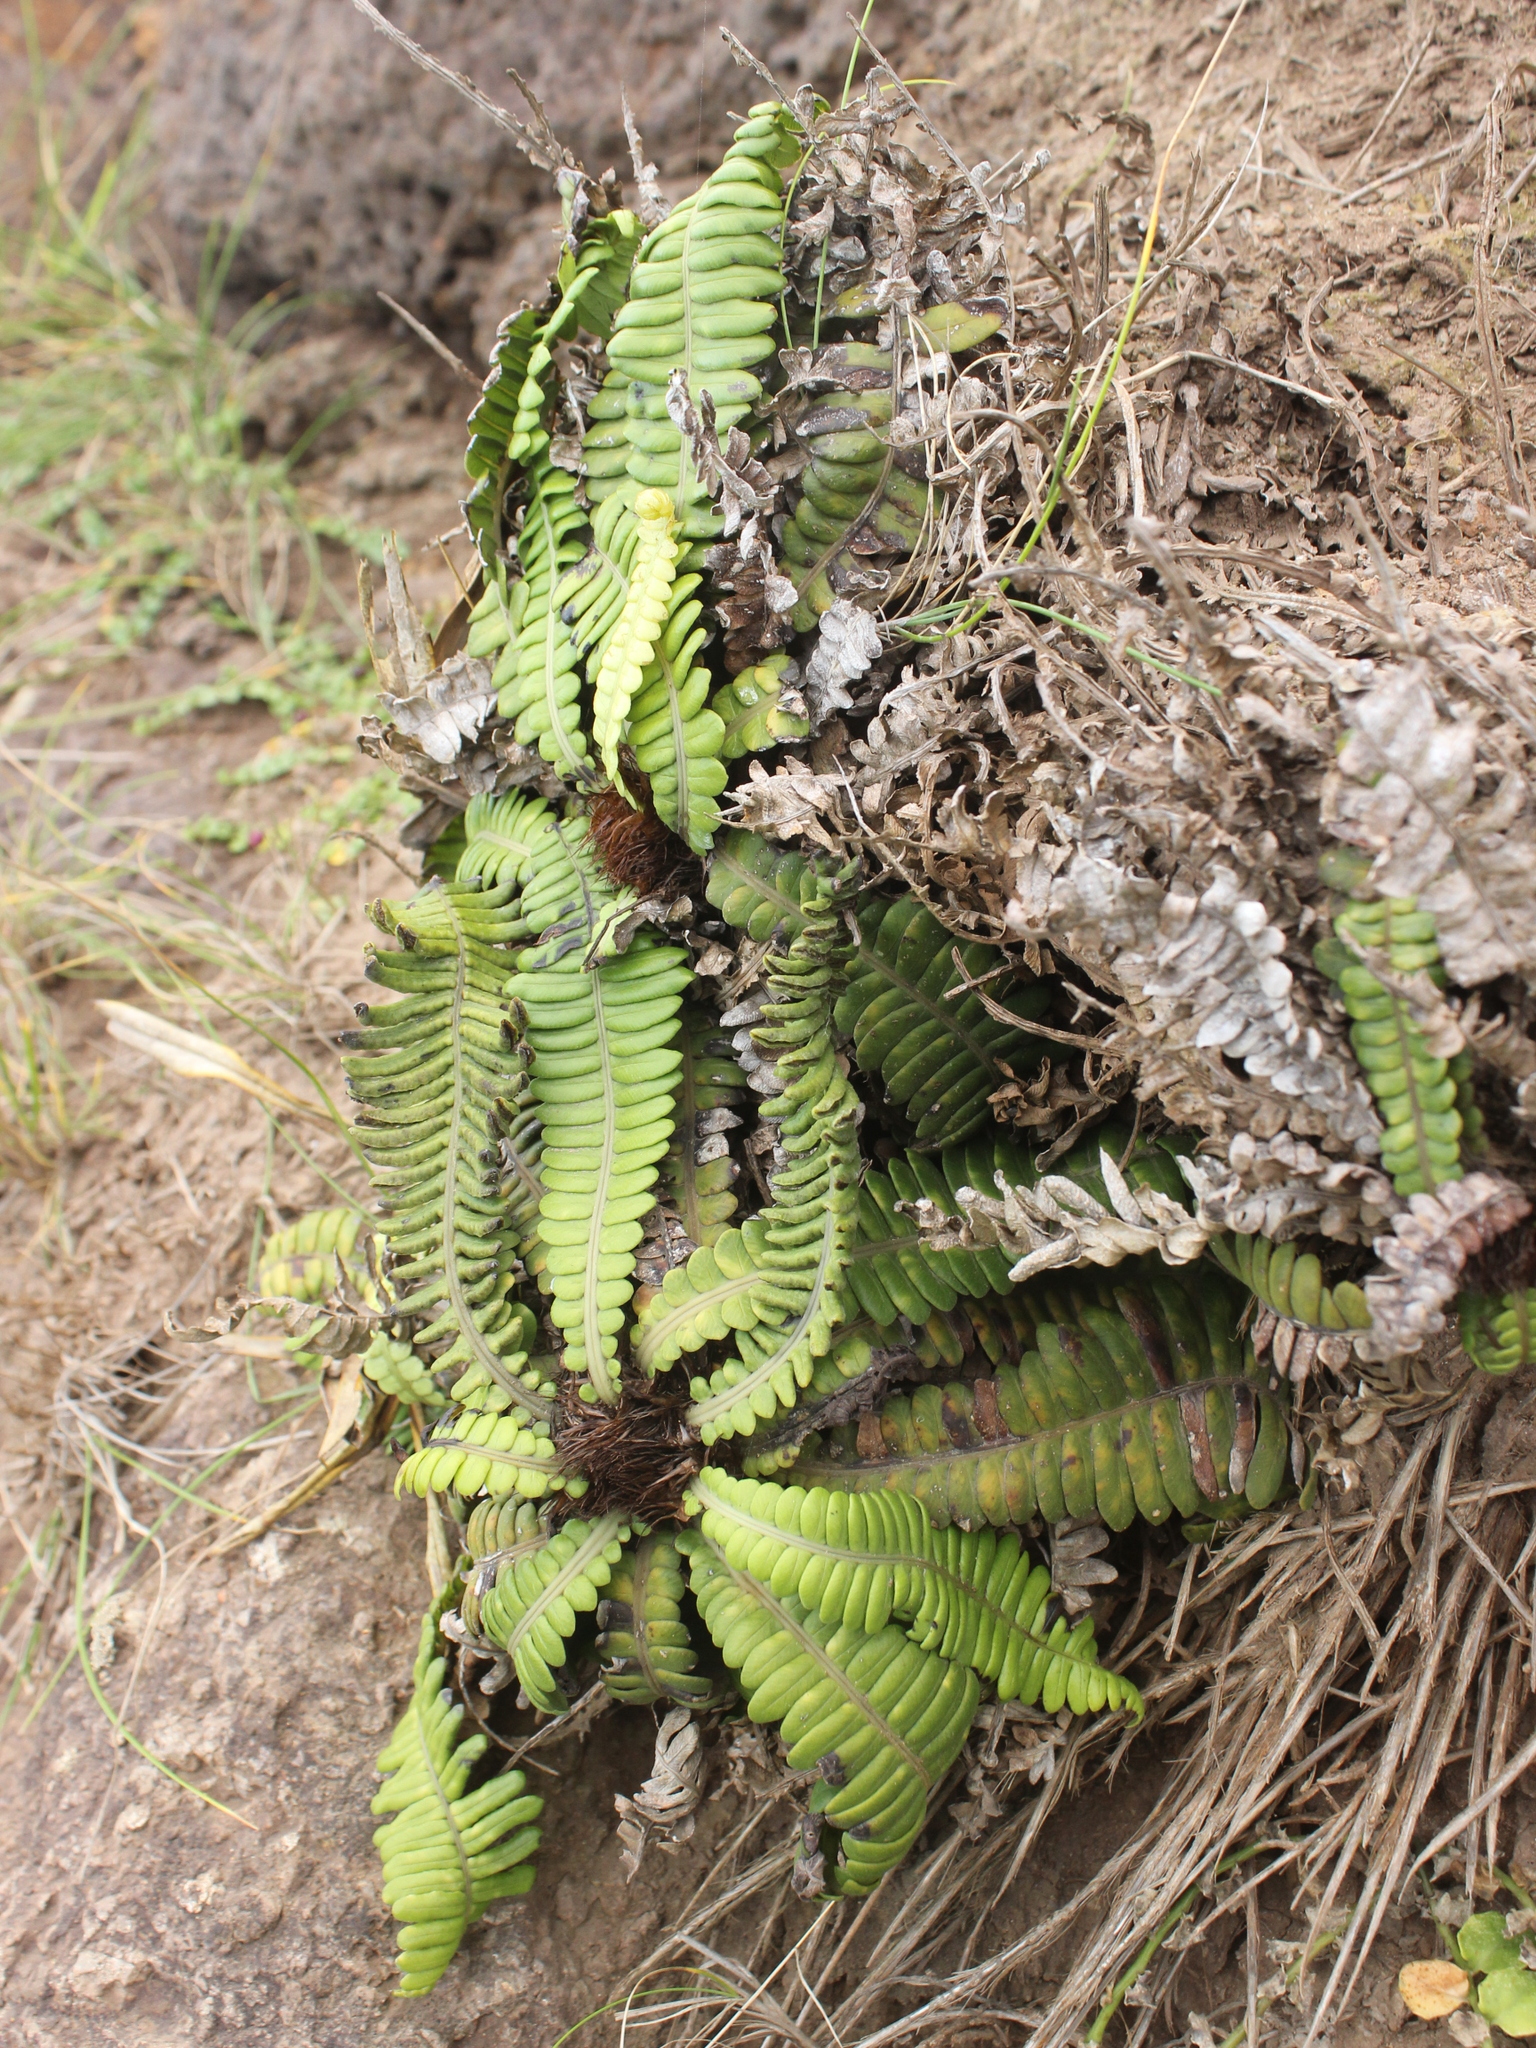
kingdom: Plantae
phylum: Tracheophyta
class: Polypodiopsida
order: Polypodiales
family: Blechnaceae
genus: Austroblechnum
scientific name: Austroblechnum durum
